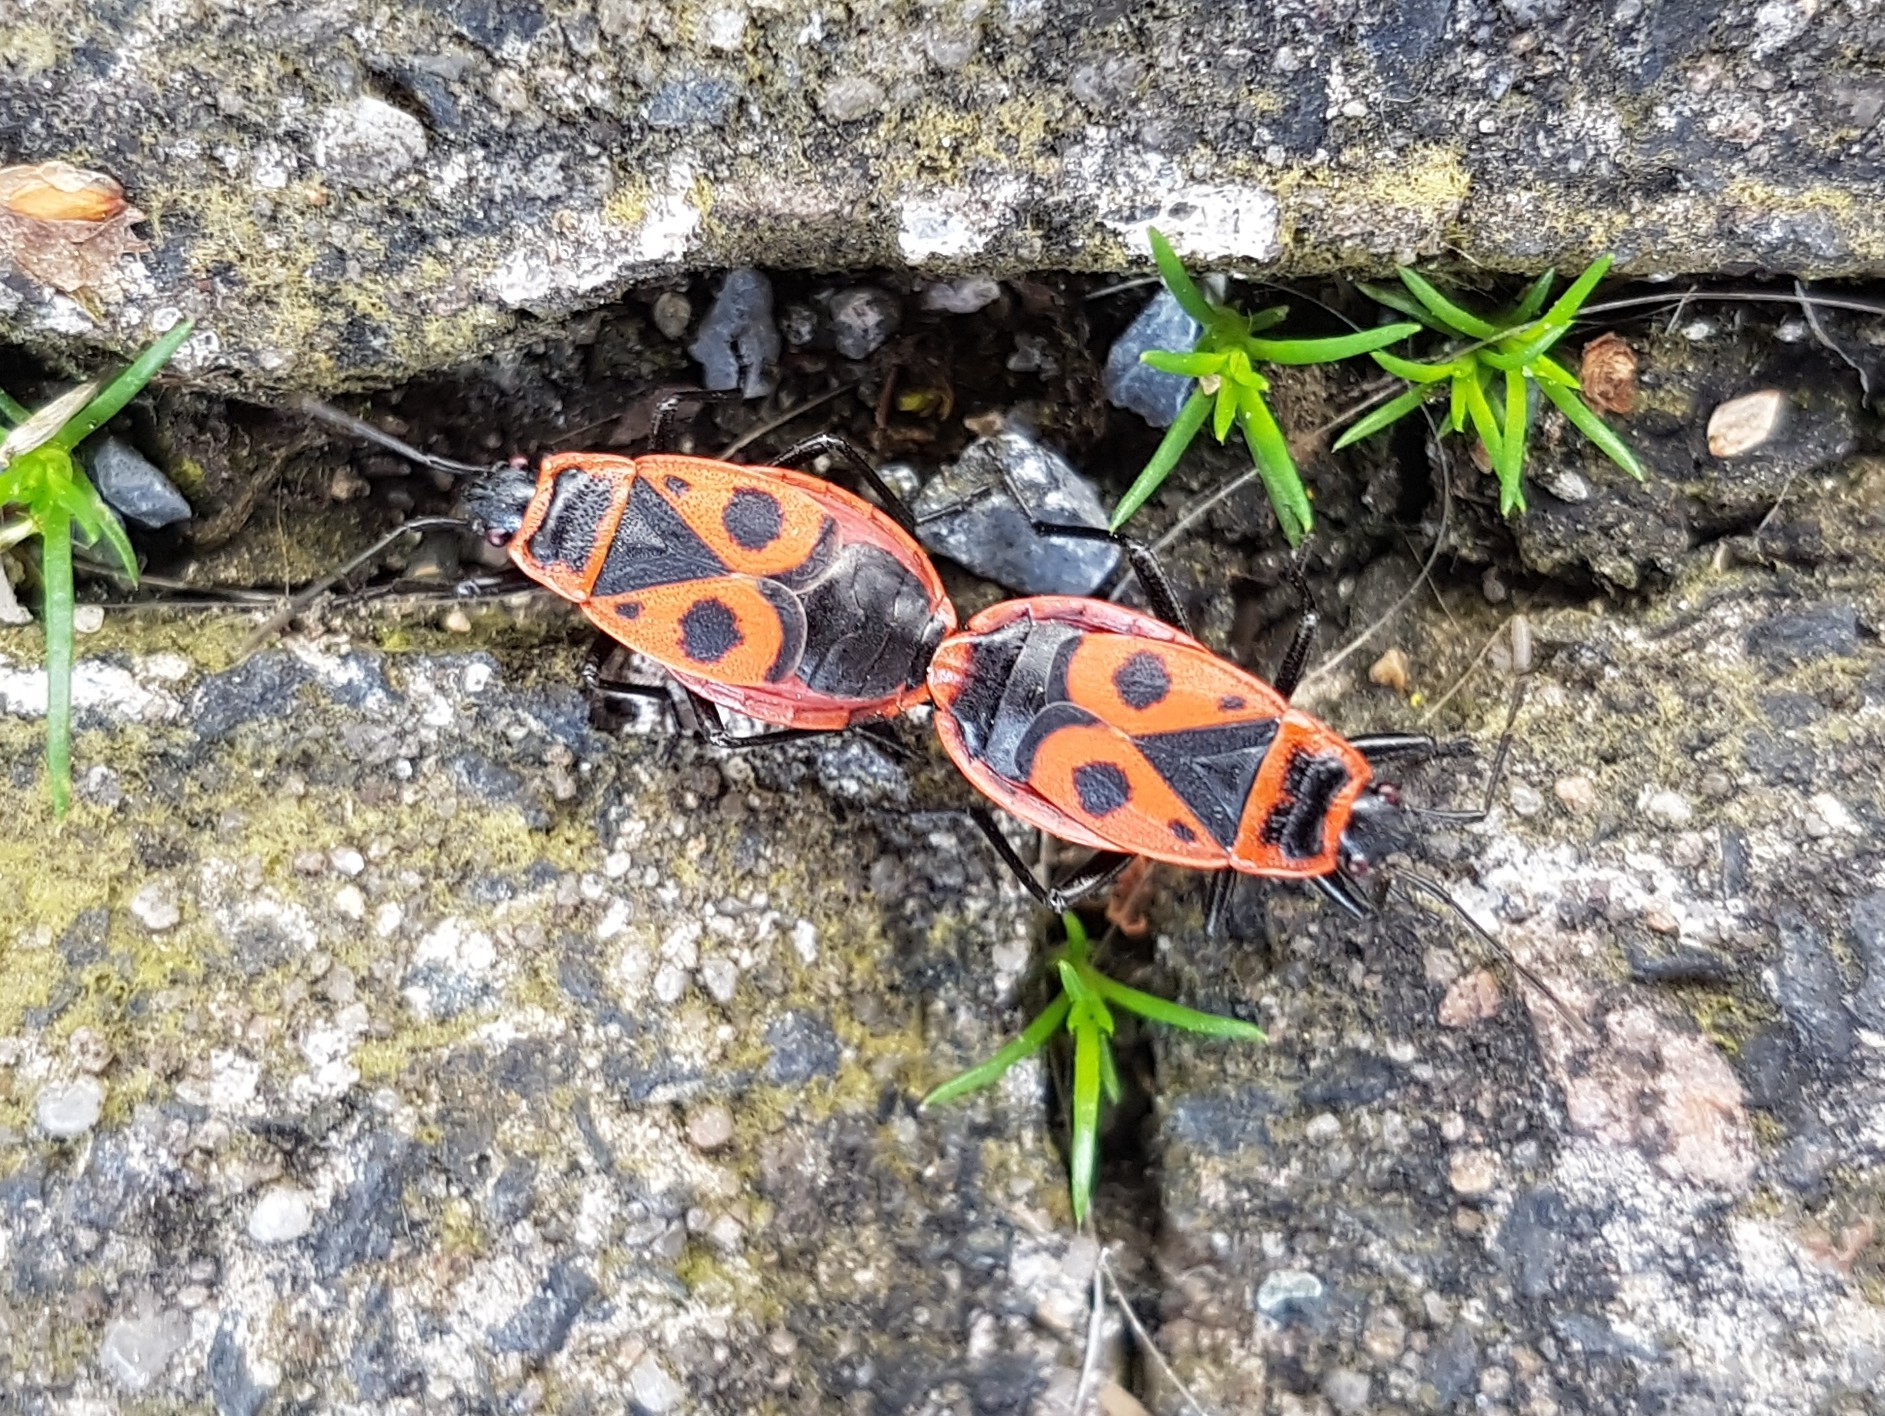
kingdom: Animalia
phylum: Arthropoda
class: Insecta
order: Hemiptera
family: Pyrrhocoridae
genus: Pyrrhocoris
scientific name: Pyrrhocoris apterus
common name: Firebug
